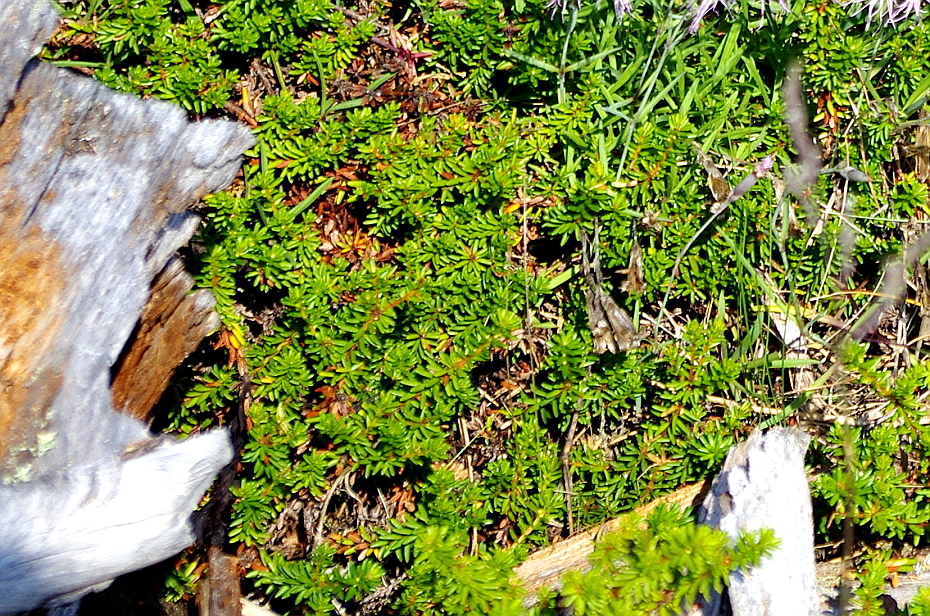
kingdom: Plantae
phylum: Tracheophyta
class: Magnoliopsida
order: Ericales
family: Ericaceae
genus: Empetrum
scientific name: Empetrum nigrum
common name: Black crowberry
